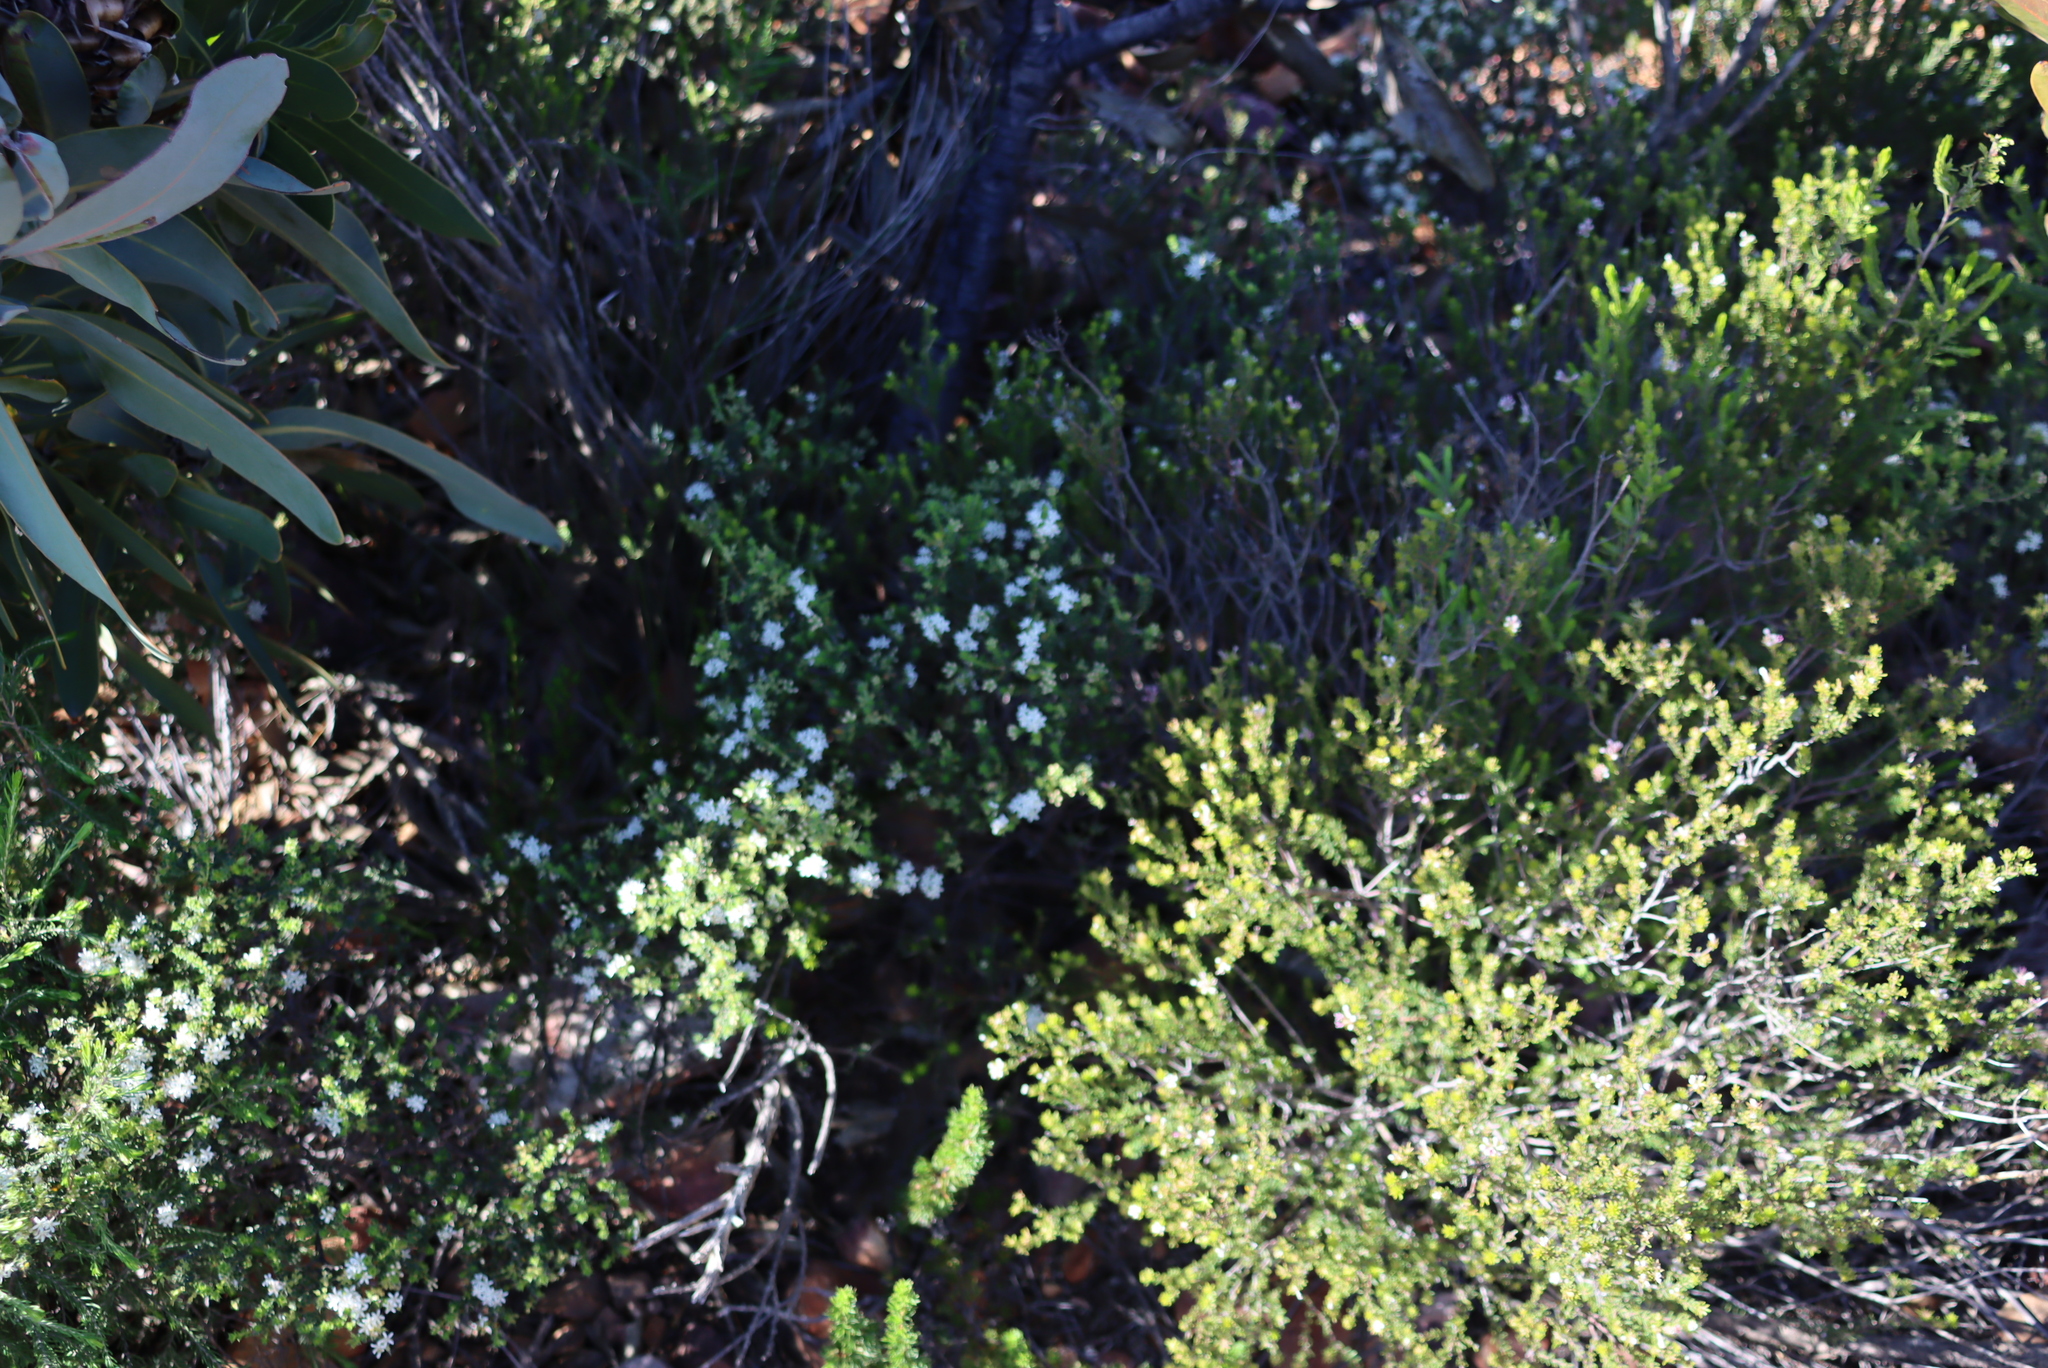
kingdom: Plantae
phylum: Tracheophyta
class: Magnoliopsida
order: Sapindales
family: Rutaceae
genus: Agathosma
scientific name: Agathosma recurvifolia
